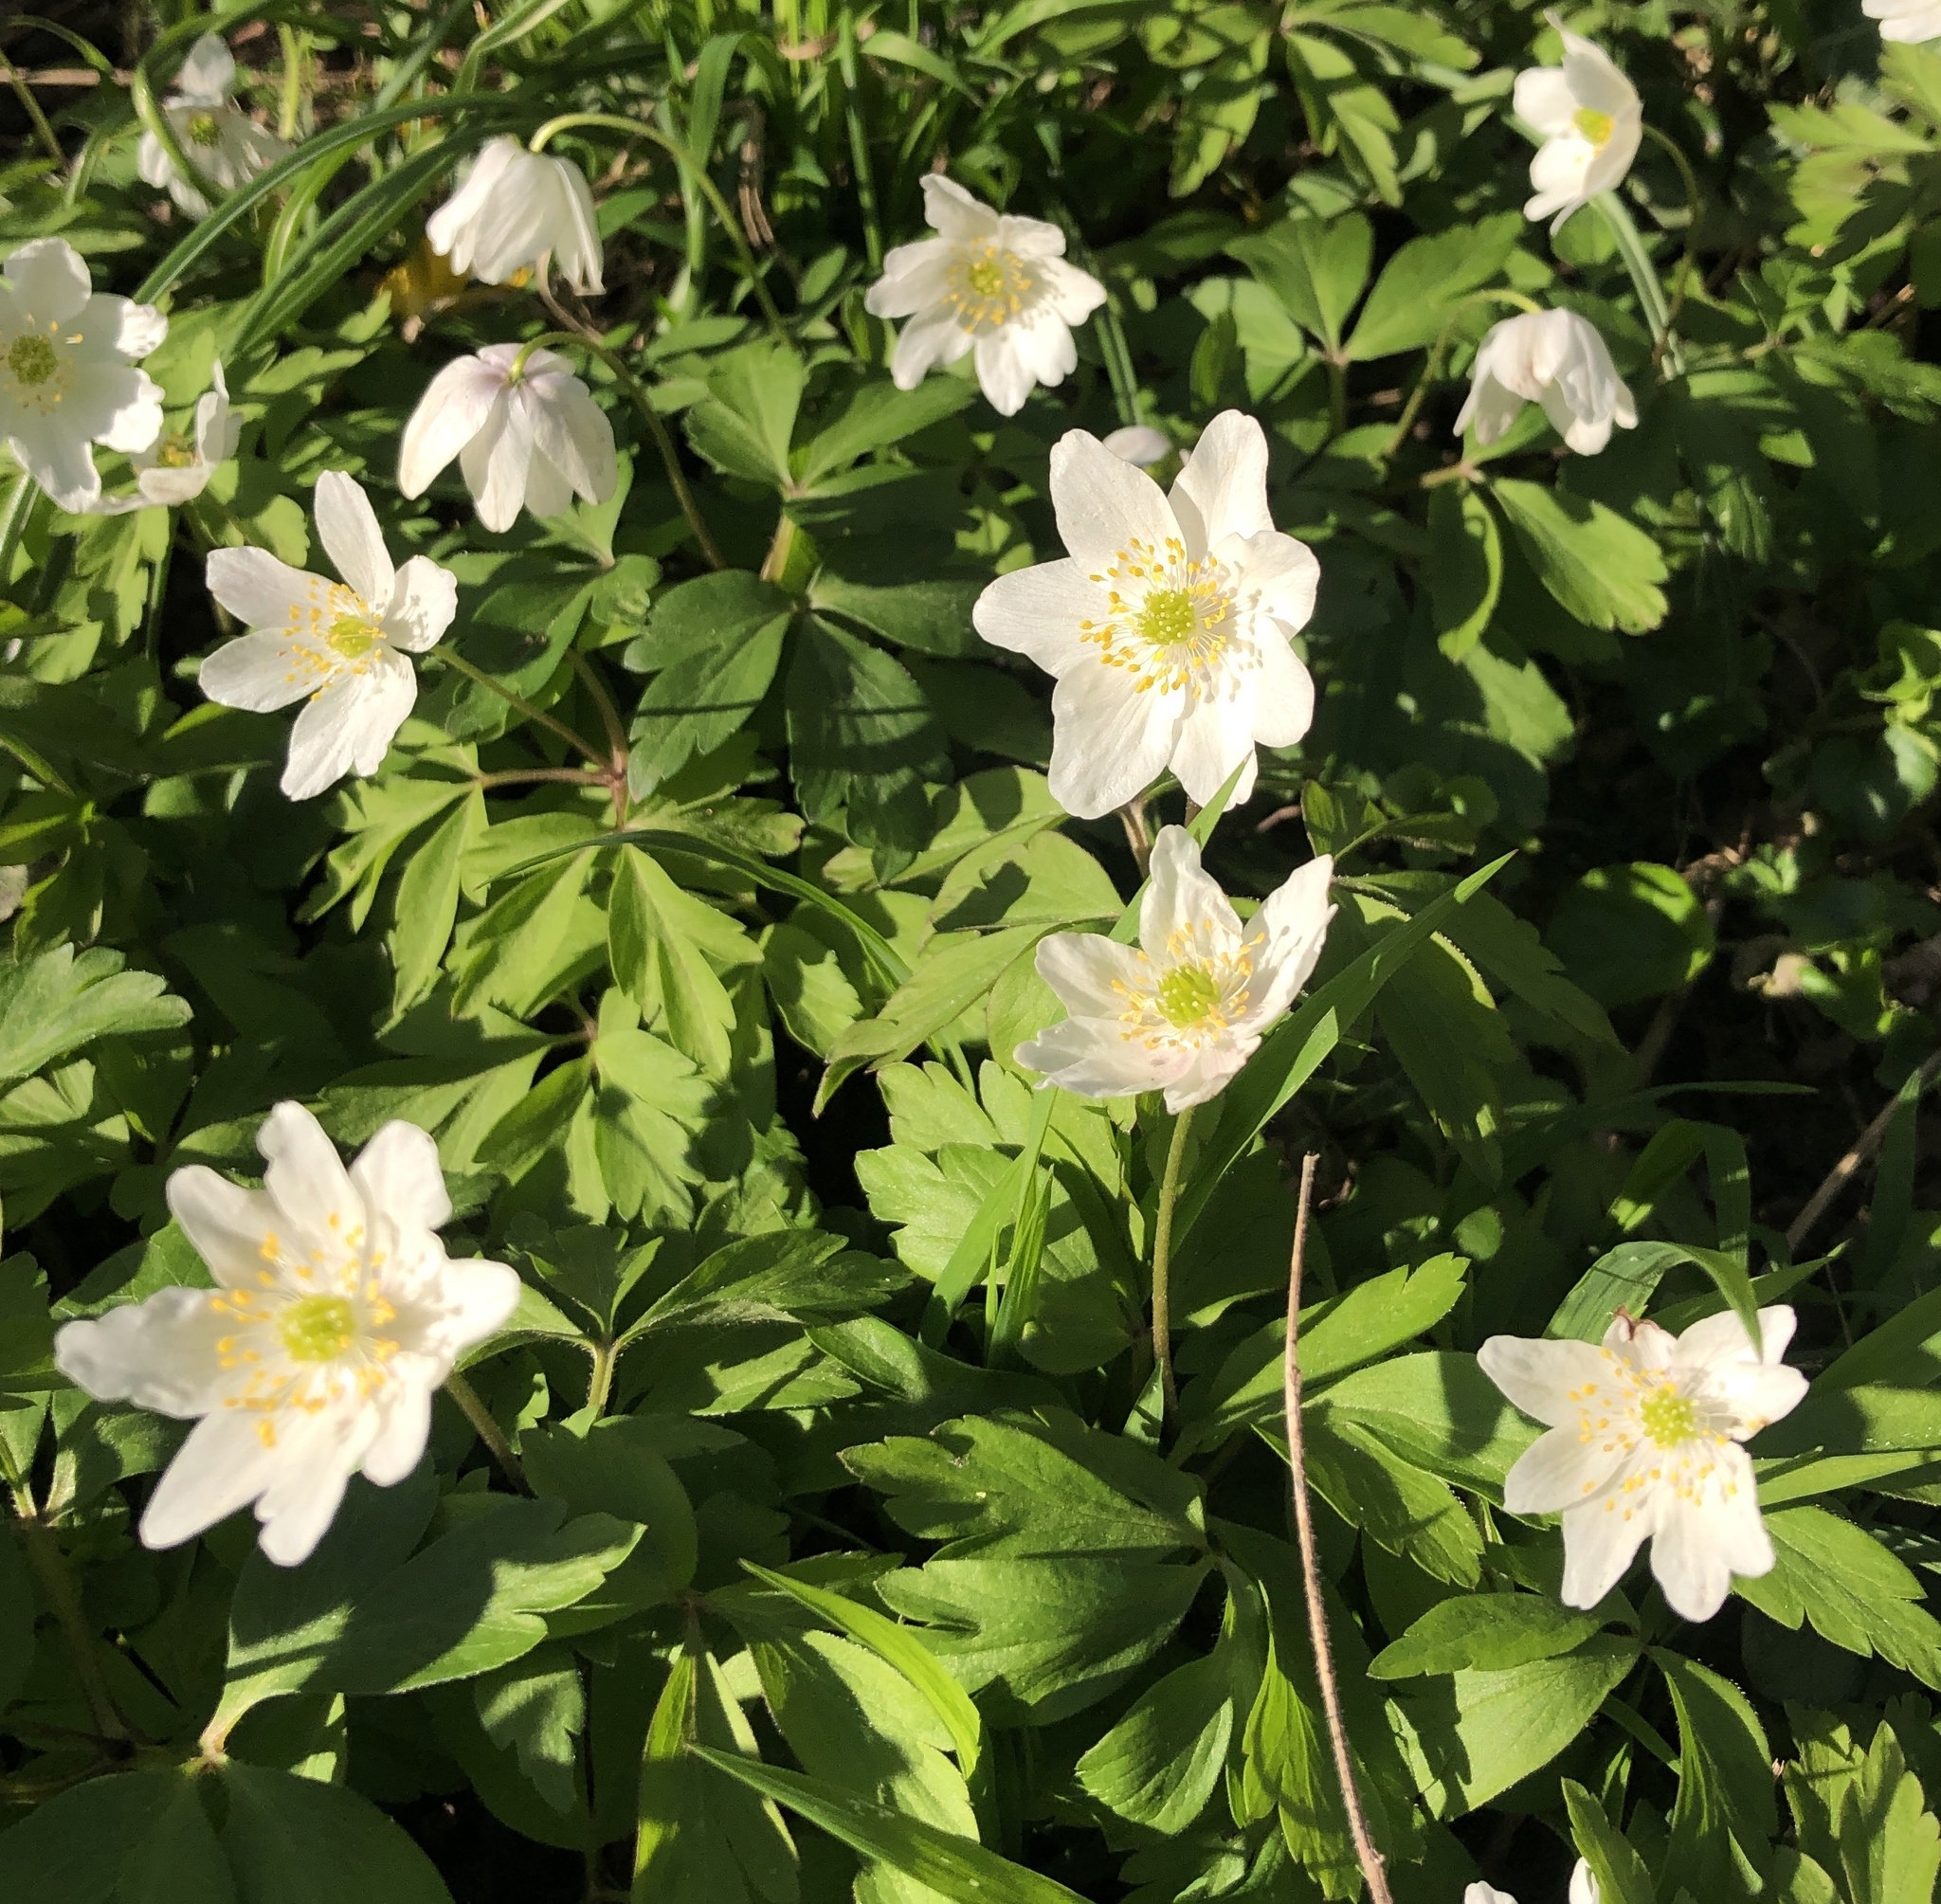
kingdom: Plantae
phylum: Tracheophyta
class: Magnoliopsida
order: Ranunculales
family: Ranunculaceae
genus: Anemone
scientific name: Anemone nemorosa
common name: Wood anemone
